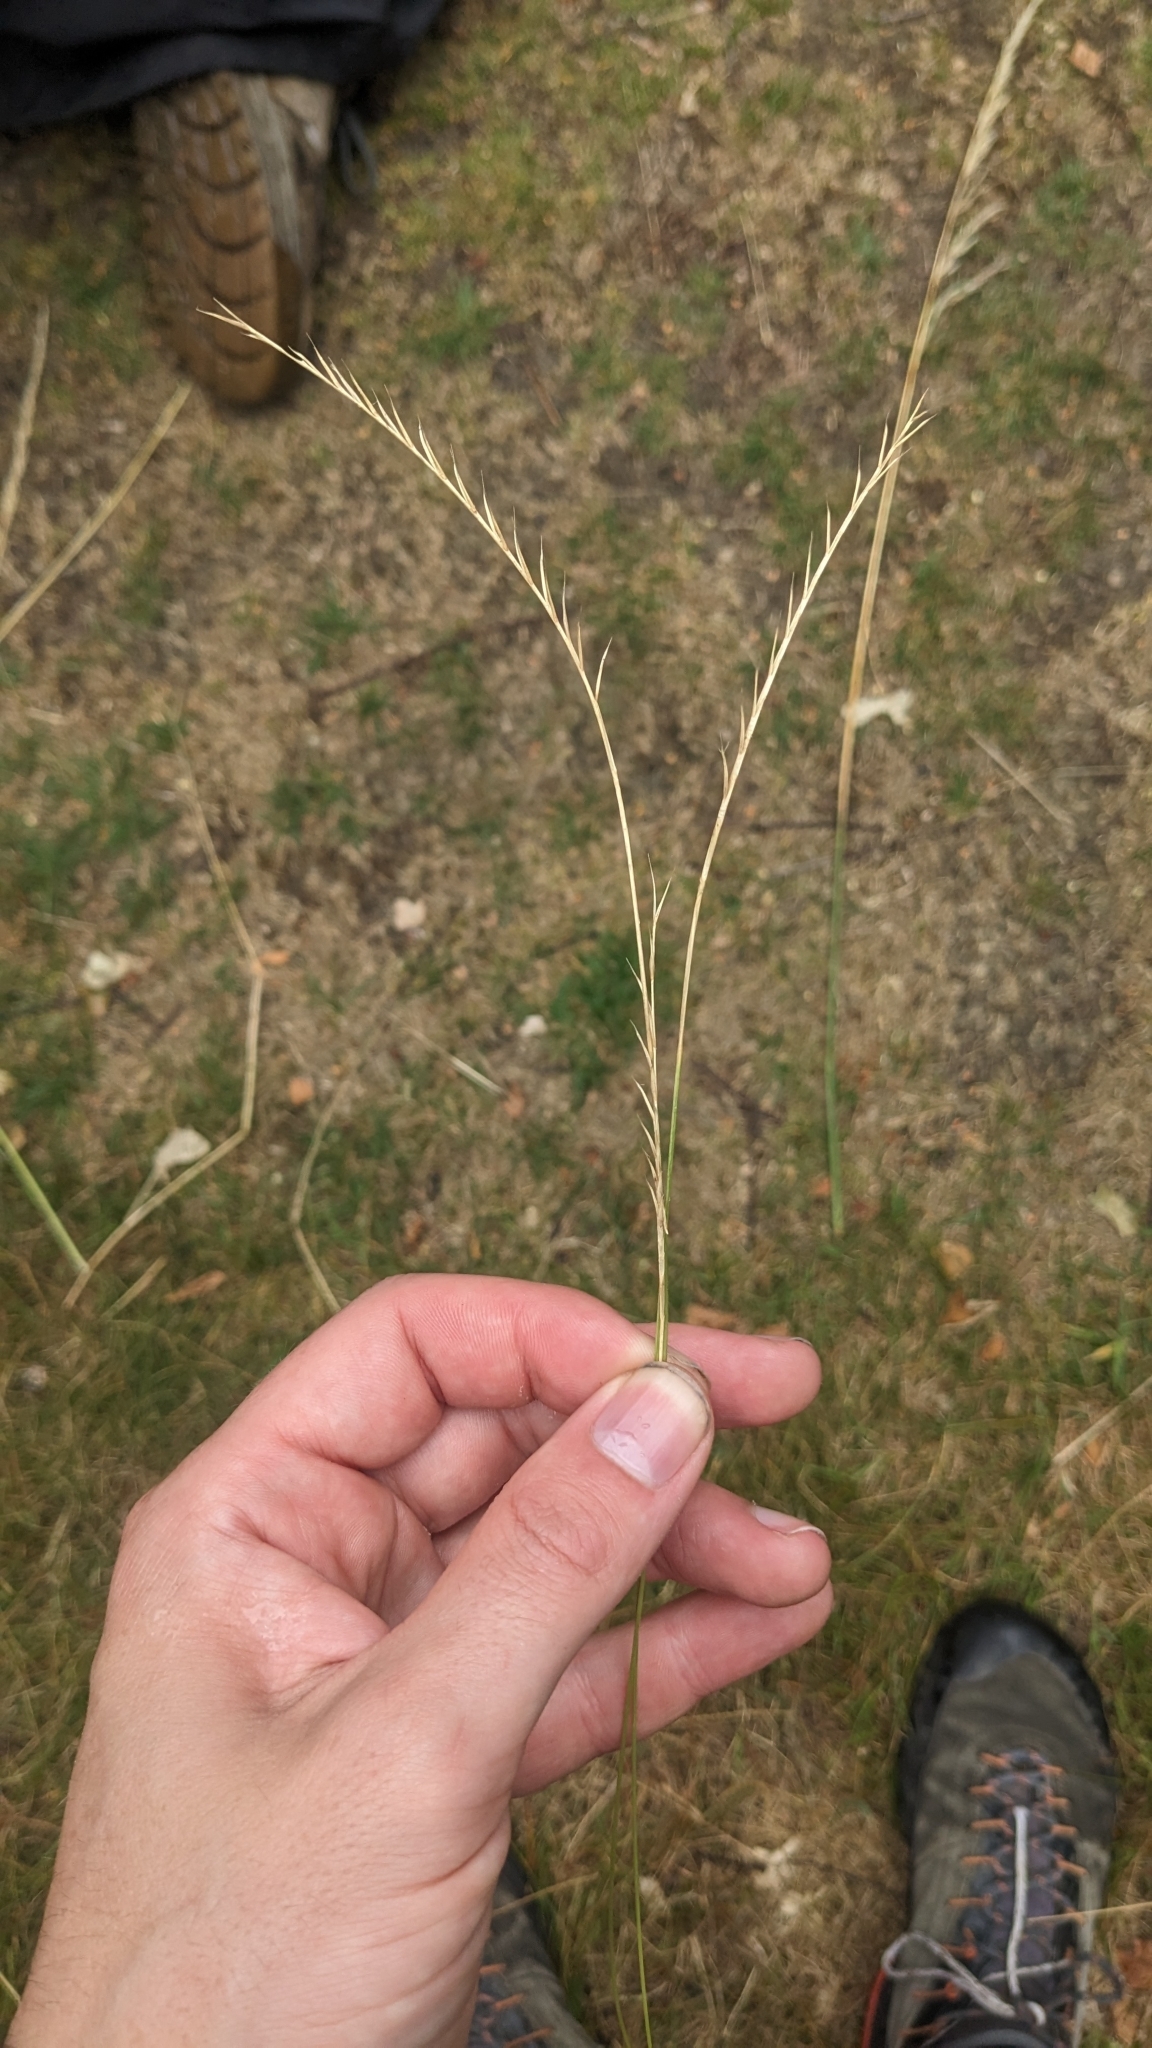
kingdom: Plantae
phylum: Tracheophyta
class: Liliopsida
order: Poales
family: Poaceae
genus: Nardus
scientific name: Nardus stricta
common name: Mat-grass
